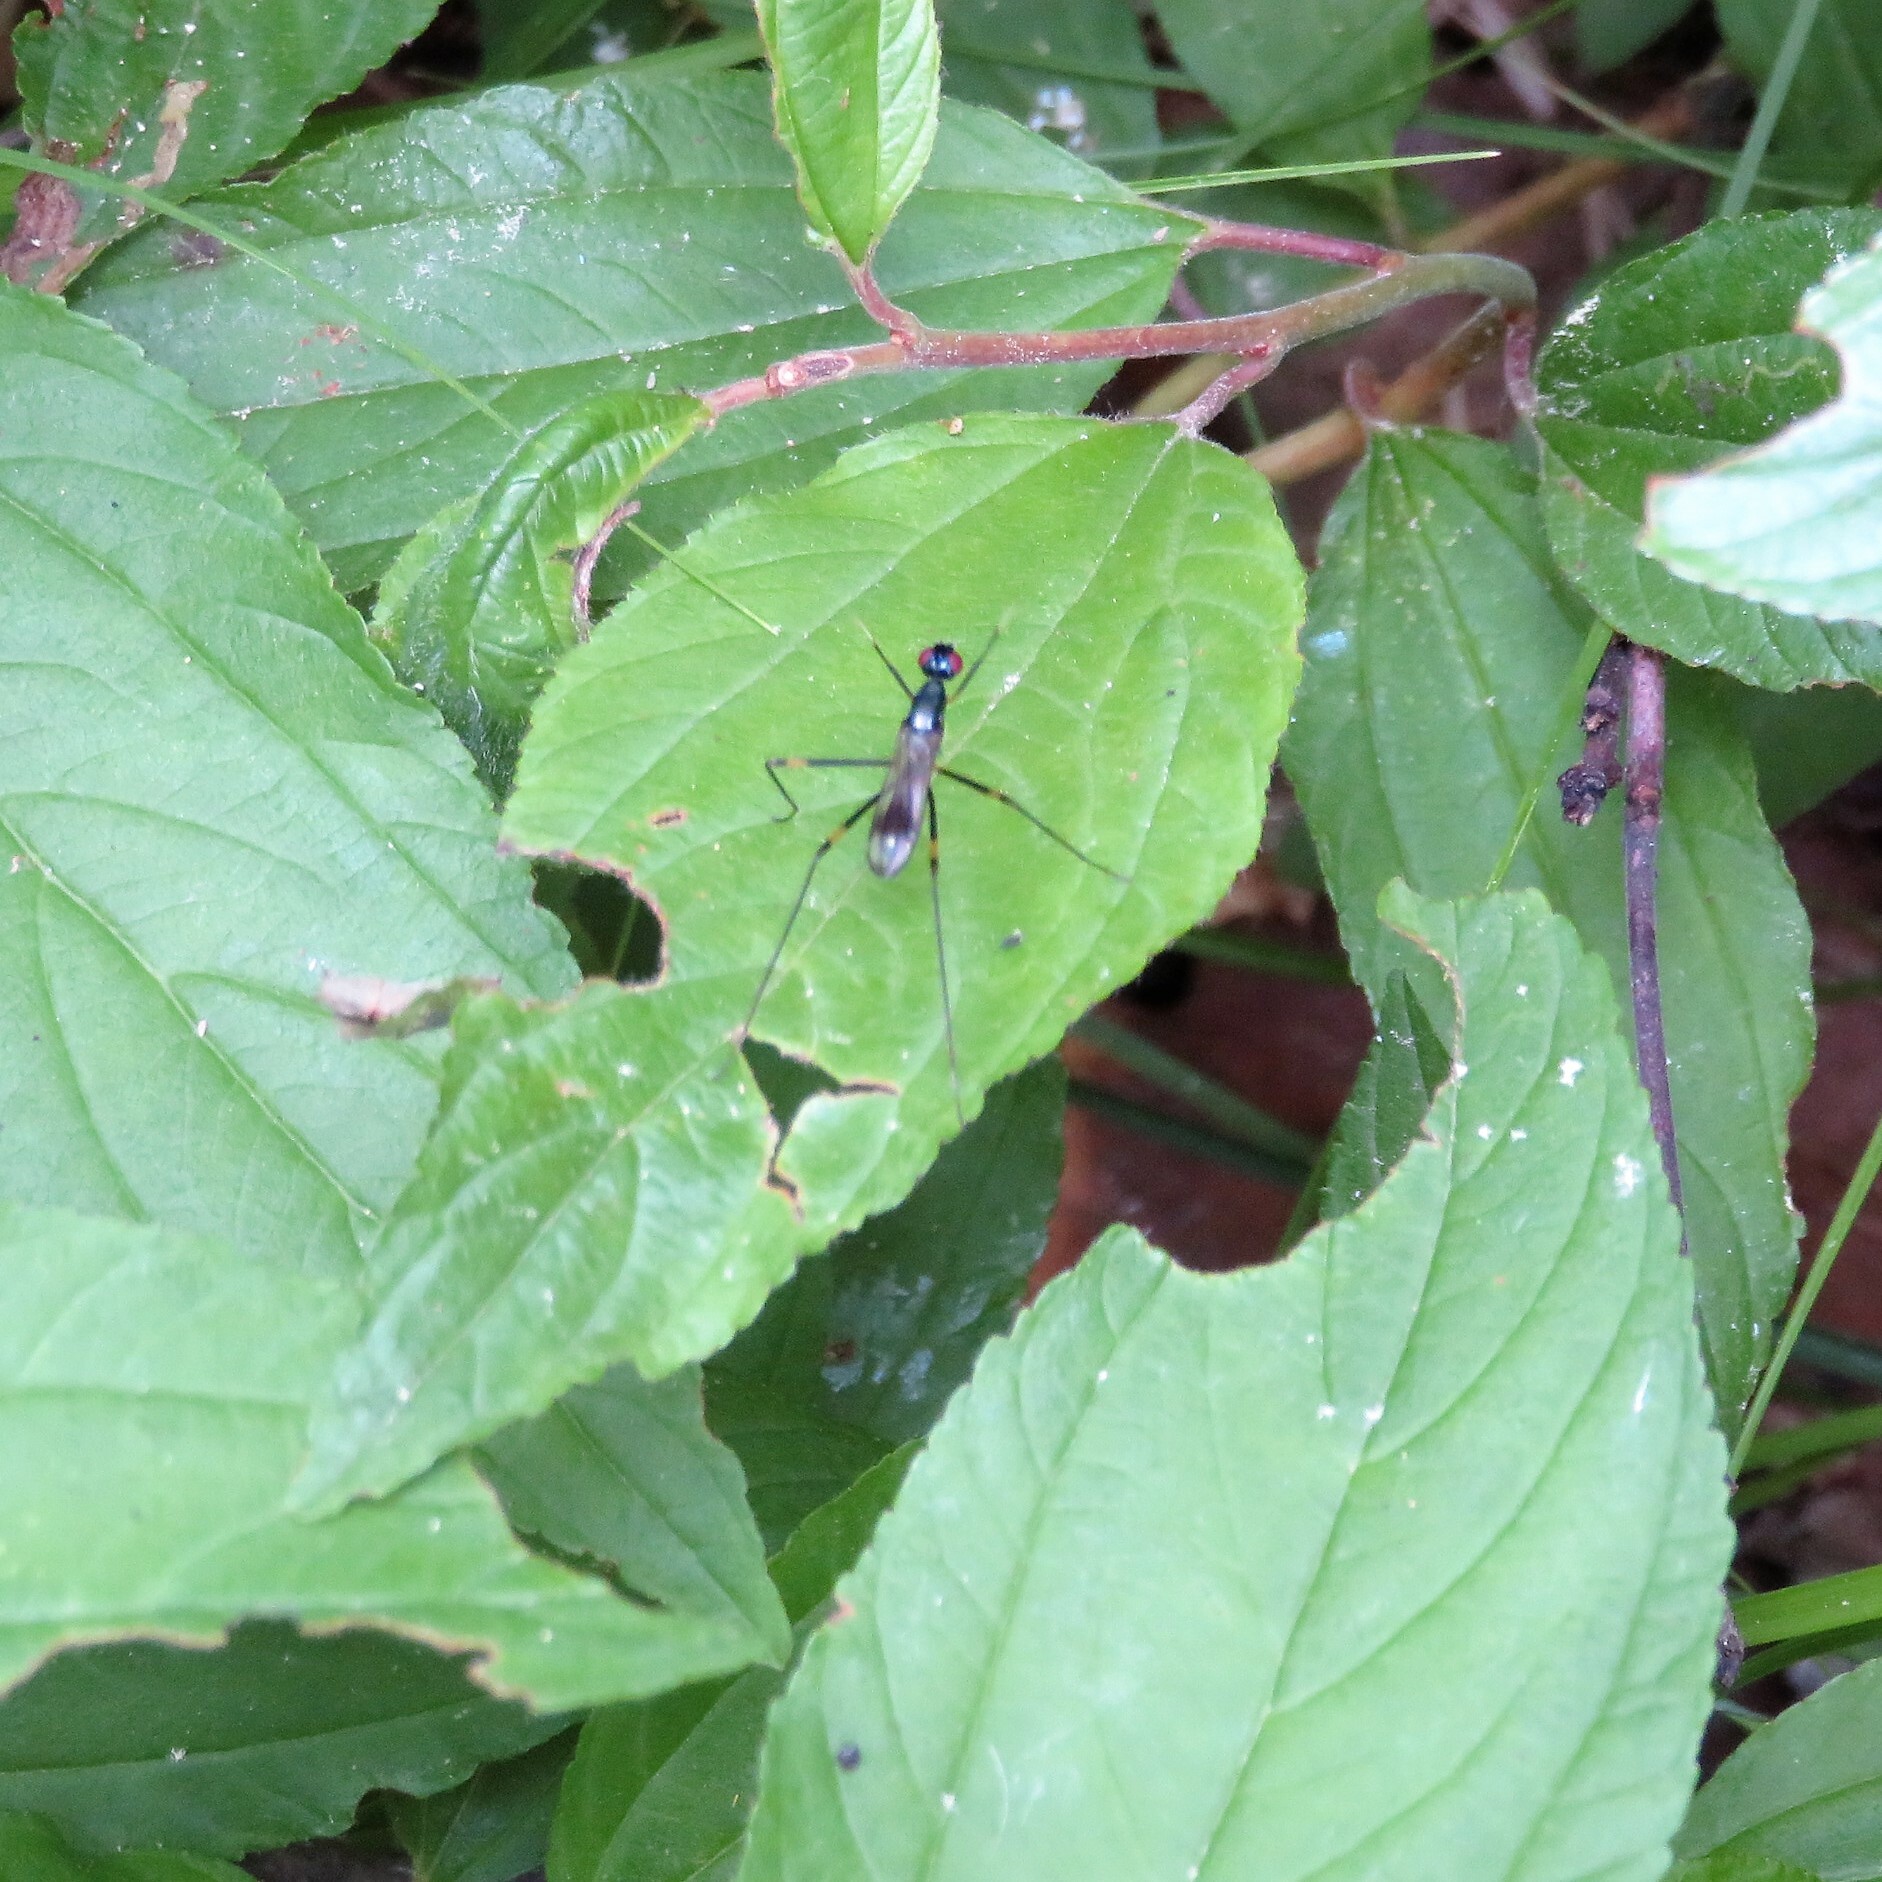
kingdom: Animalia
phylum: Arthropoda
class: Insecta
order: Diptera
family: Micropezidae
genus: Rainieria
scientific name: Rainieria antennaepes
